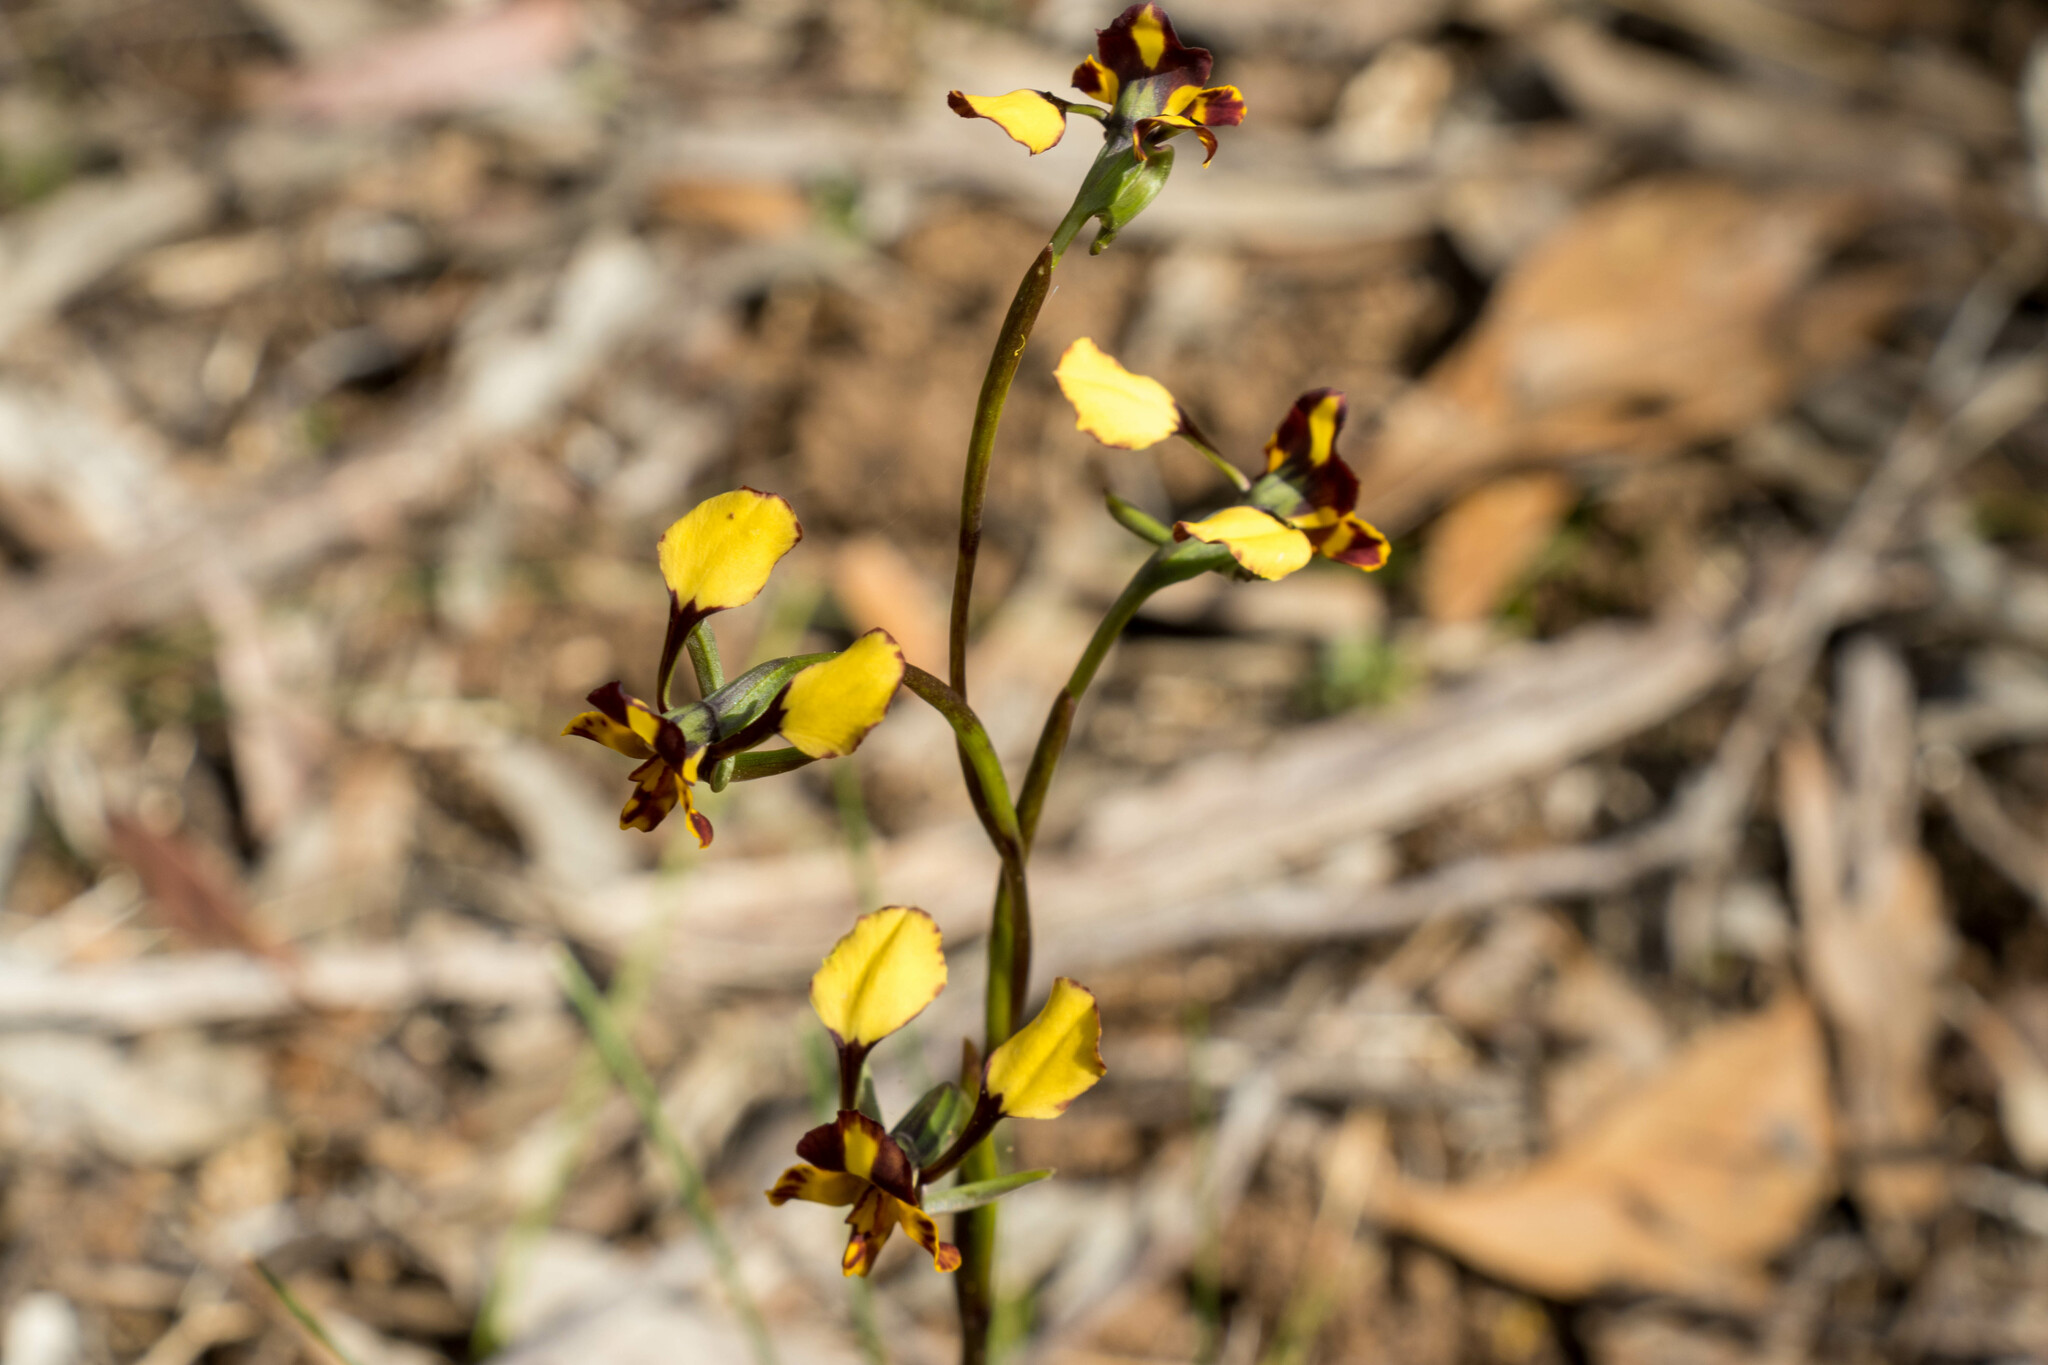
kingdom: Plantae
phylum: Tracheophyta
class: Liliopsida
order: Asparagales
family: Orchidaceae
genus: Diuris
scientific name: Diuris pardina
